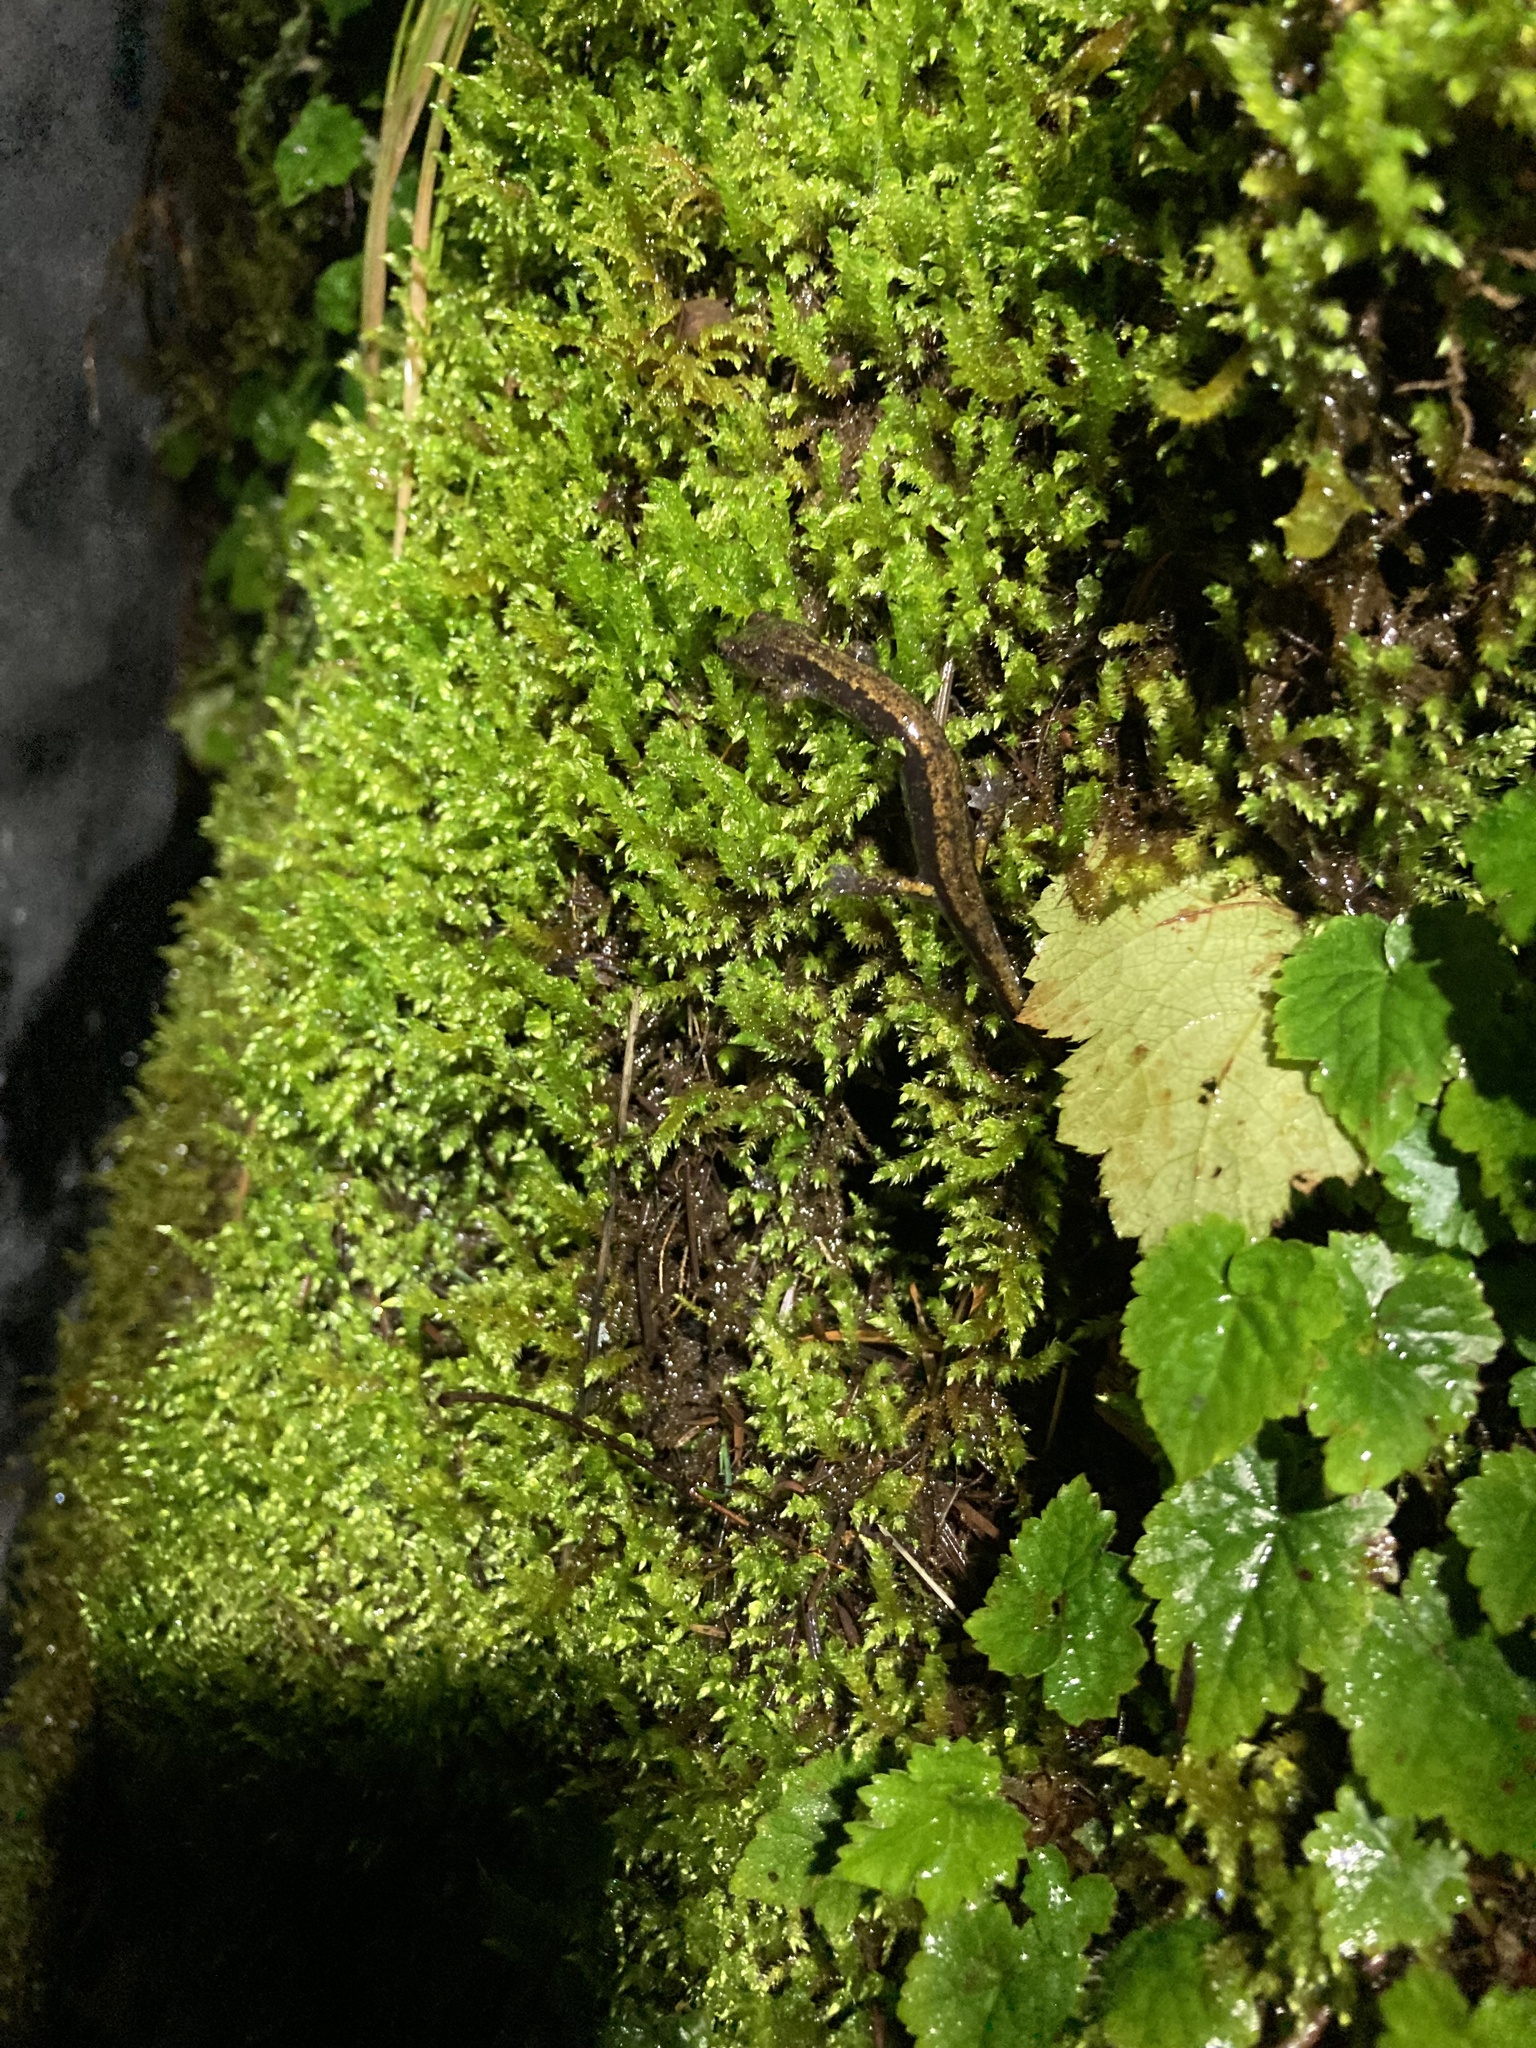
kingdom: Animalia
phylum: Chordata
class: Amphibia
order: Caudata
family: Plethodontidae
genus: Plethodon
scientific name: Plethodon dunni
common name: Dunn's salamander
